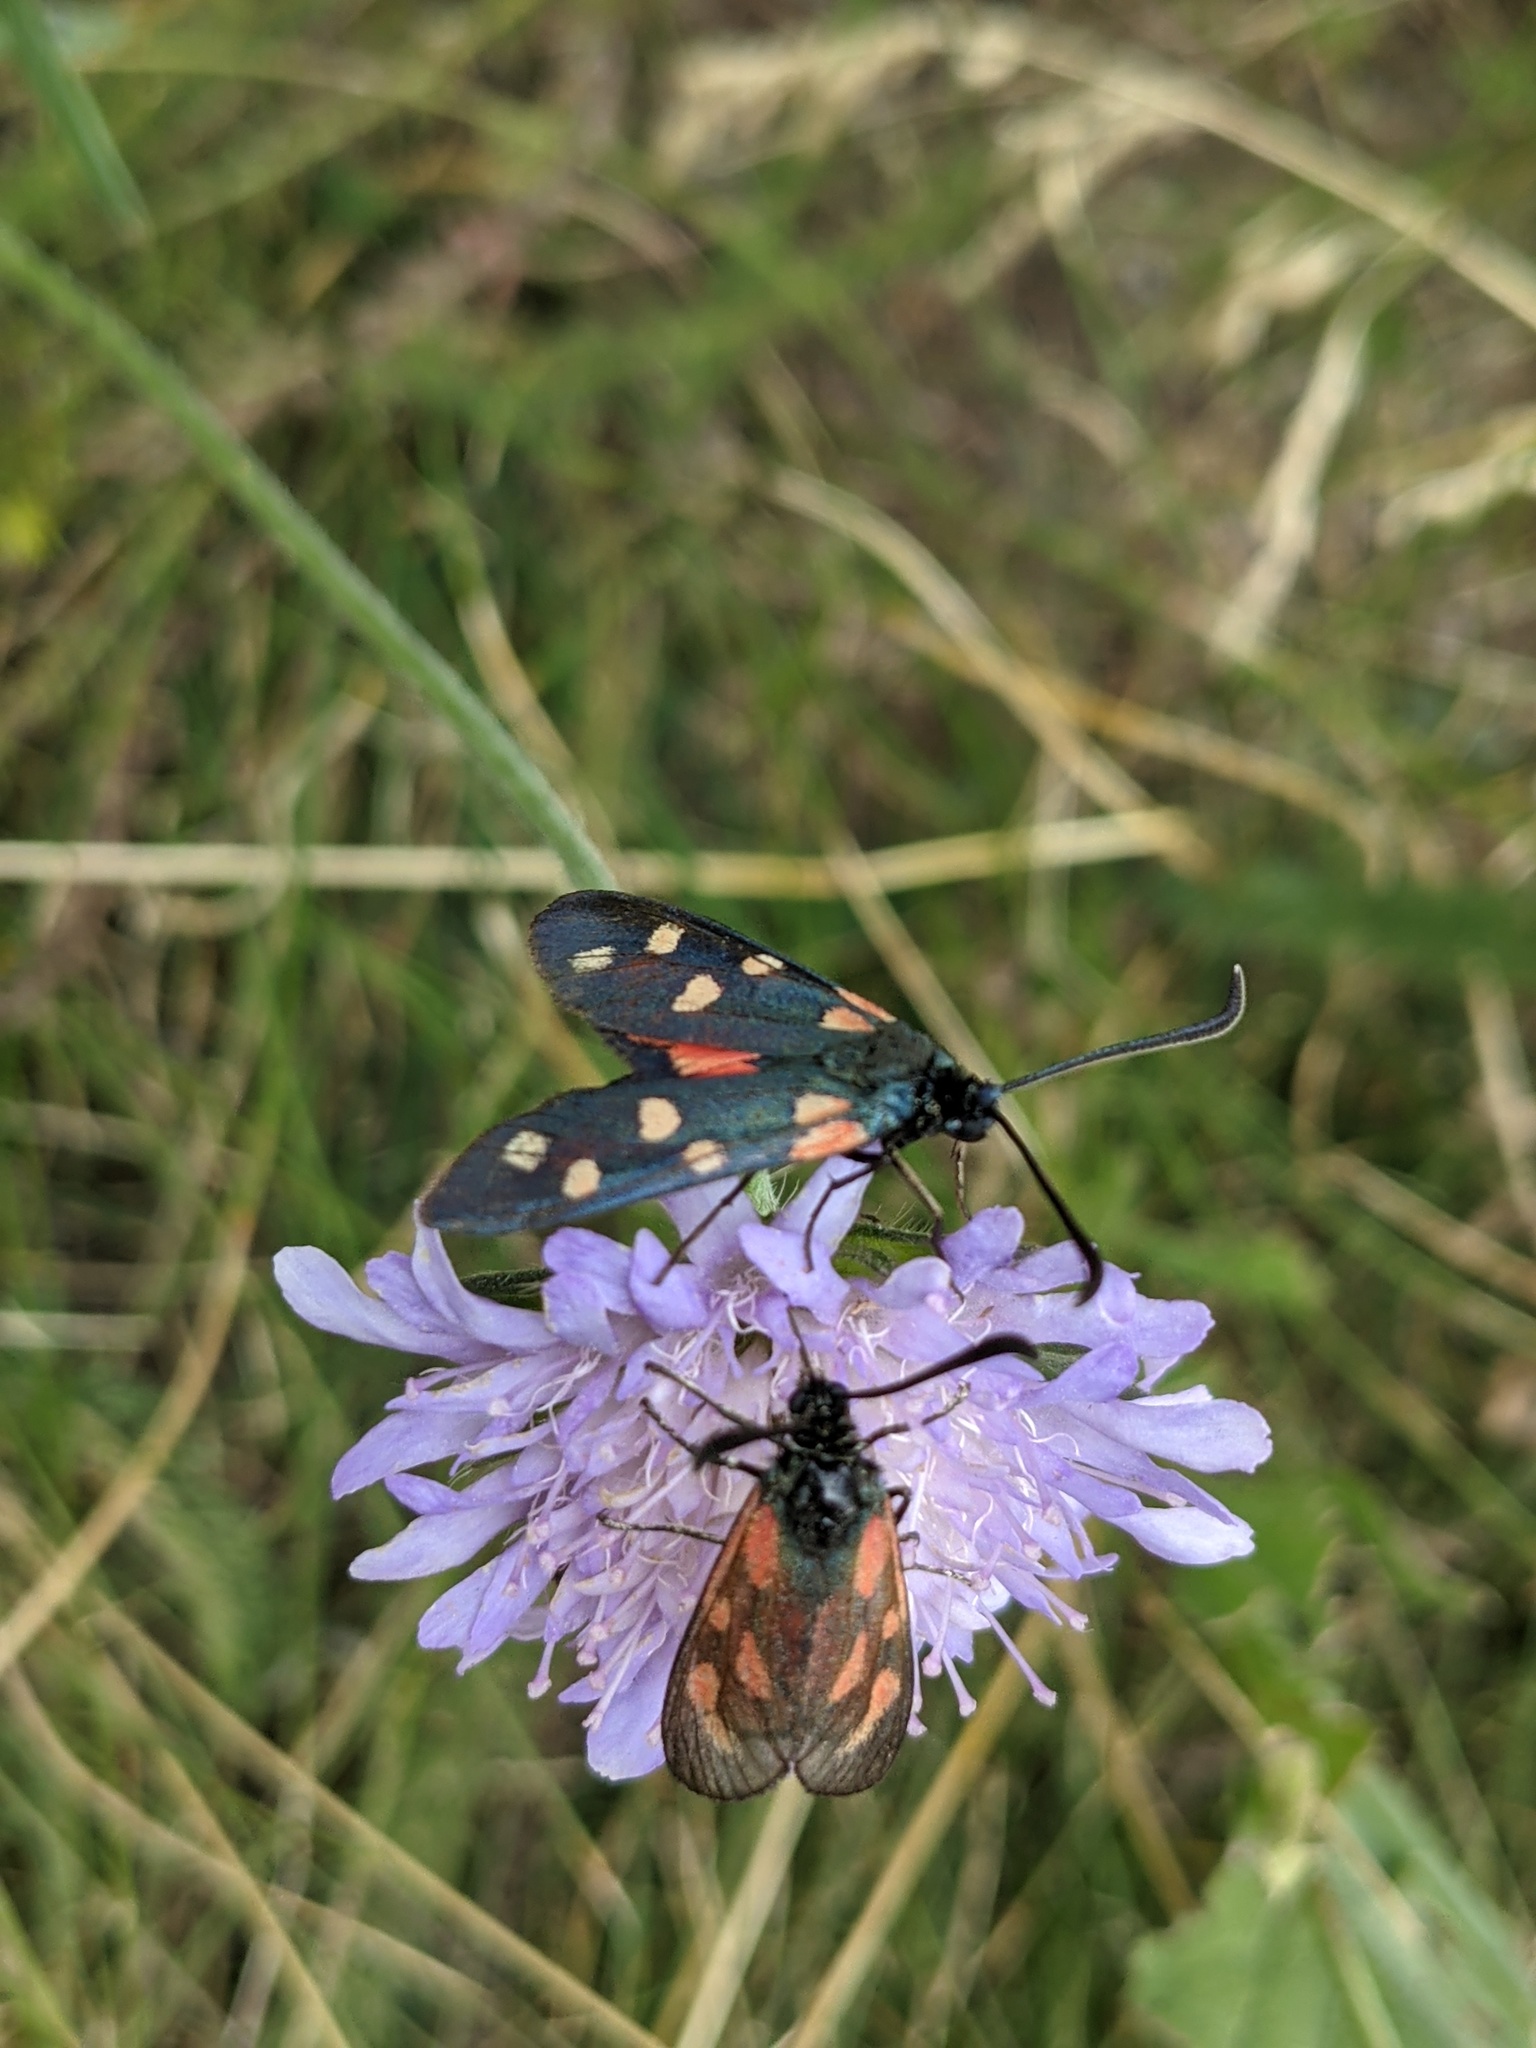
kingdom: Animalia
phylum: Arthropoda
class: Insecta
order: Lepidoptera
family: Zygaenidae
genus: Zygaena
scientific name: Zygaena transalpina
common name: Southern six spot burnet
